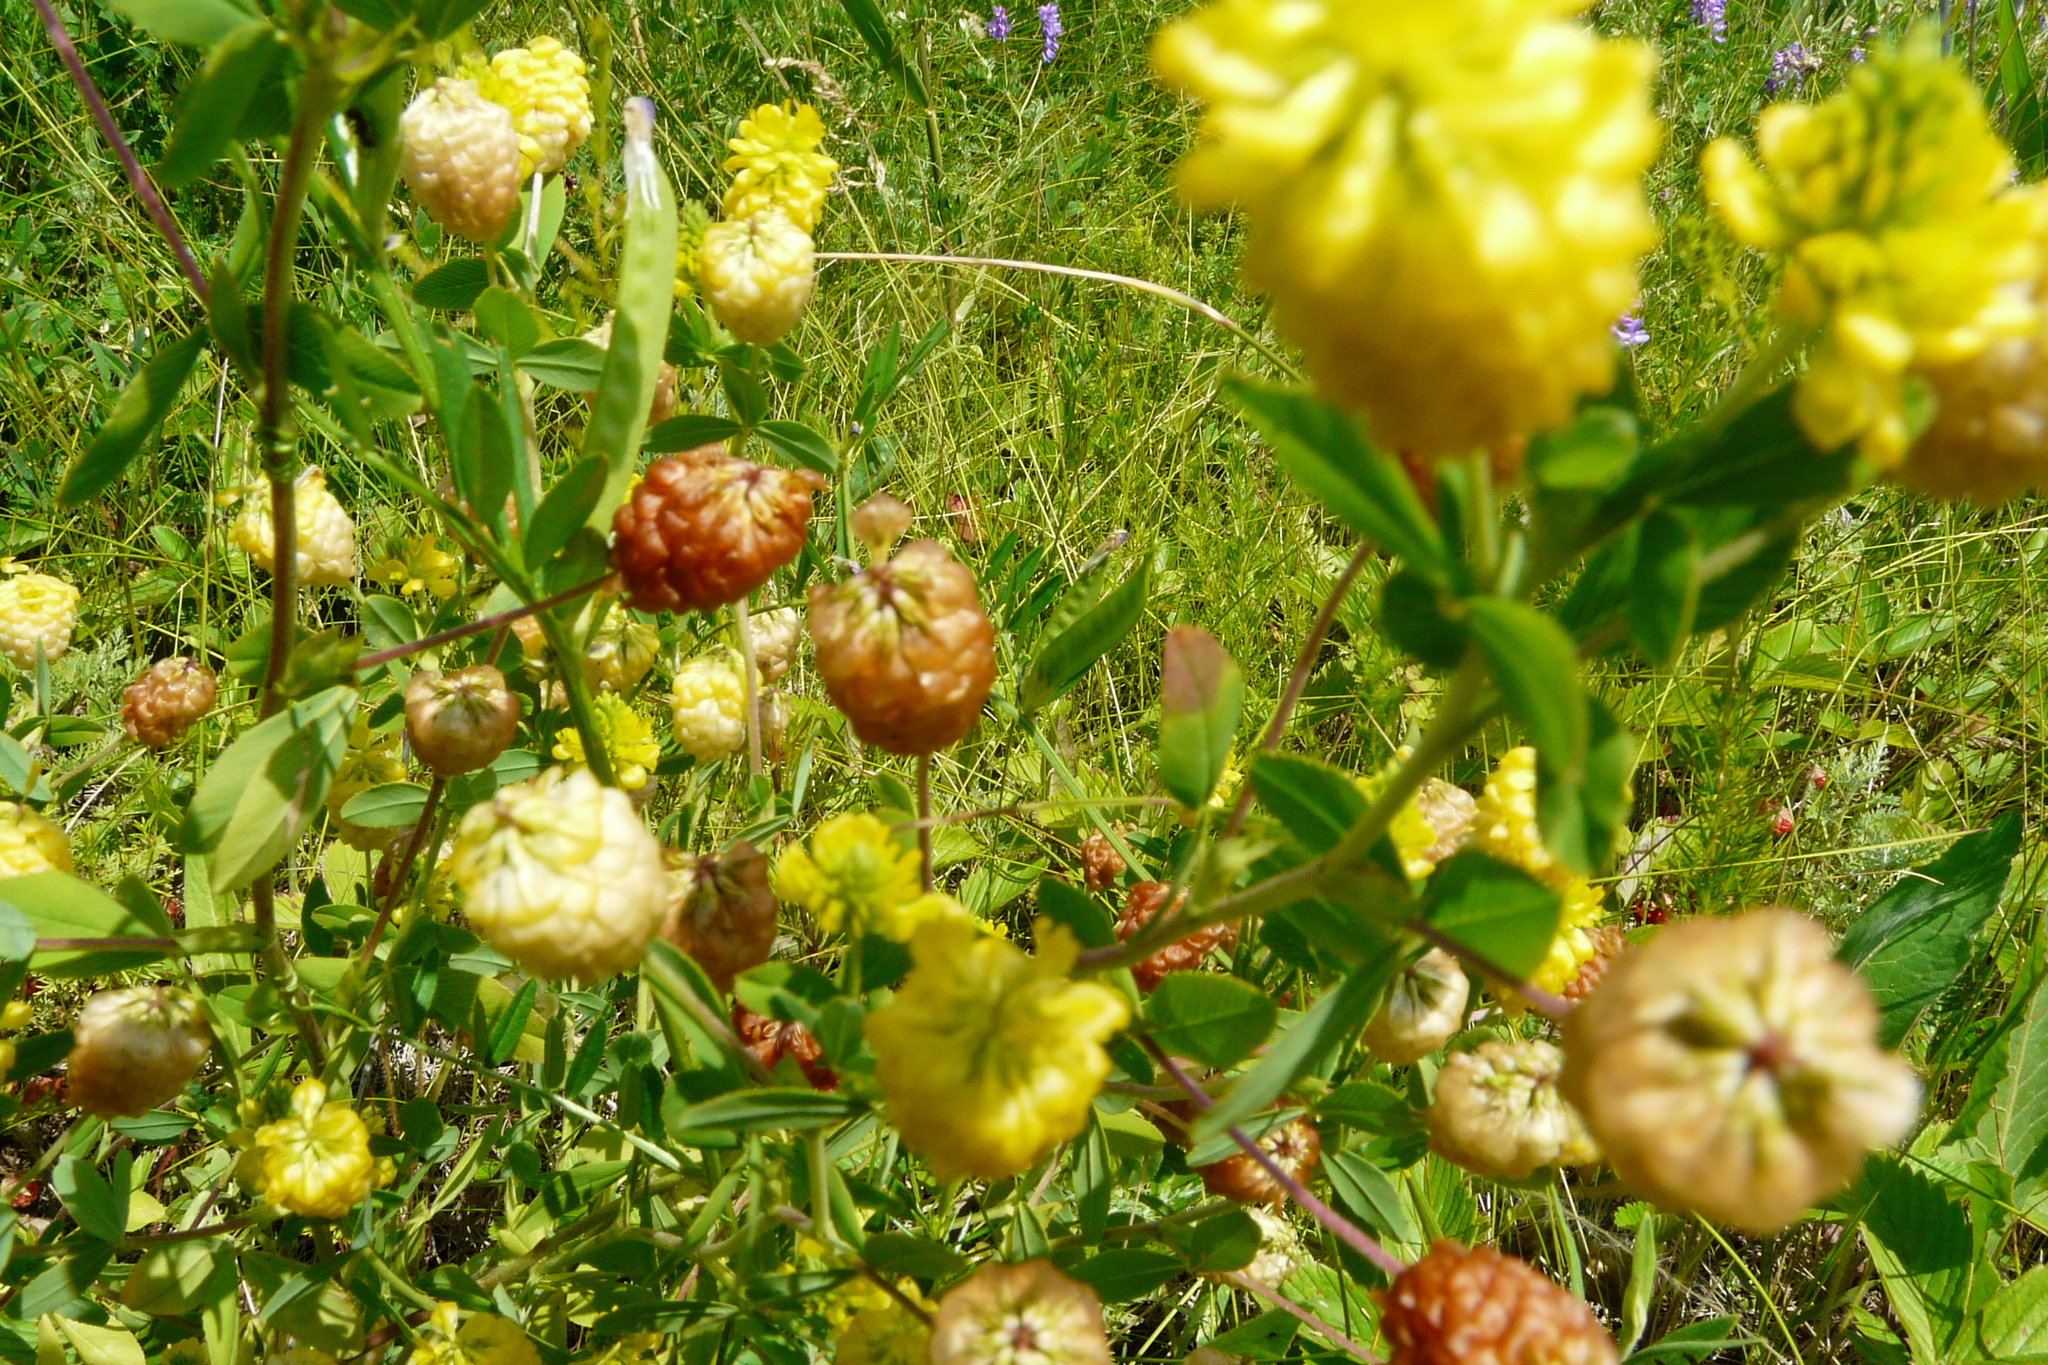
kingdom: Plantae
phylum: Tracheophyta
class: Magnoliopsida
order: Fabales
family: Fabaceae
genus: Trifolium
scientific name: Trifolium aureum
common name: Golden clover
